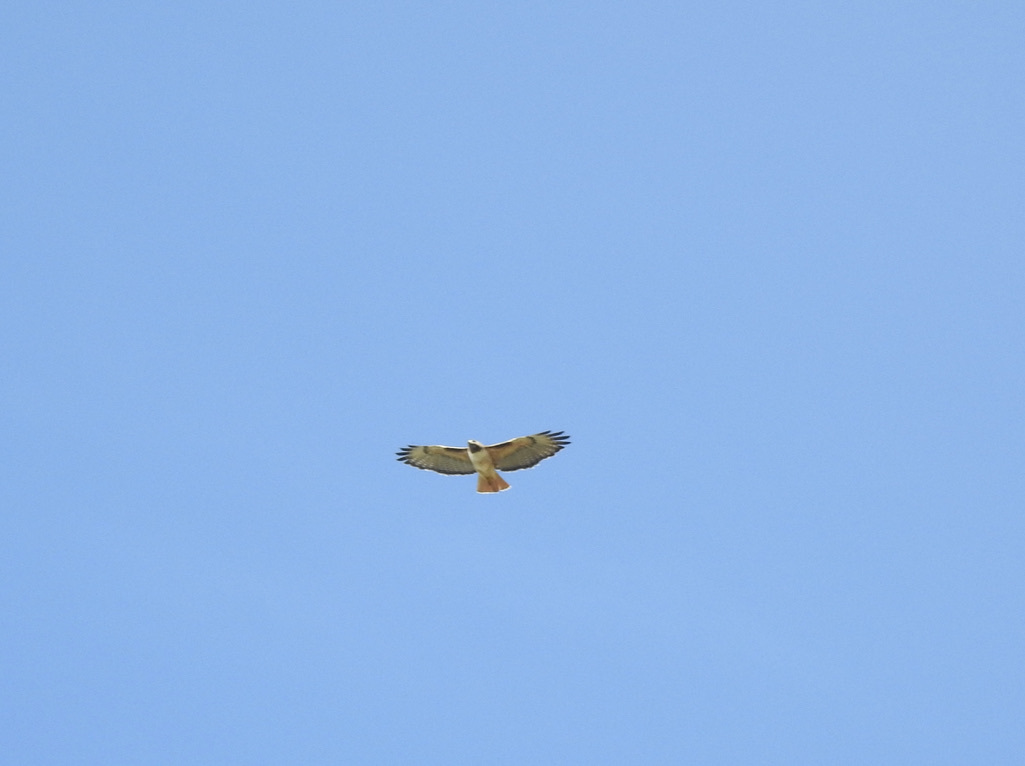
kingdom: Animalia
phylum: Chordata
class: Aves
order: Accipitriformes
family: Accipitridae
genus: Buteo
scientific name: Buteo jamaicensis
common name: Red-tailed hawk
